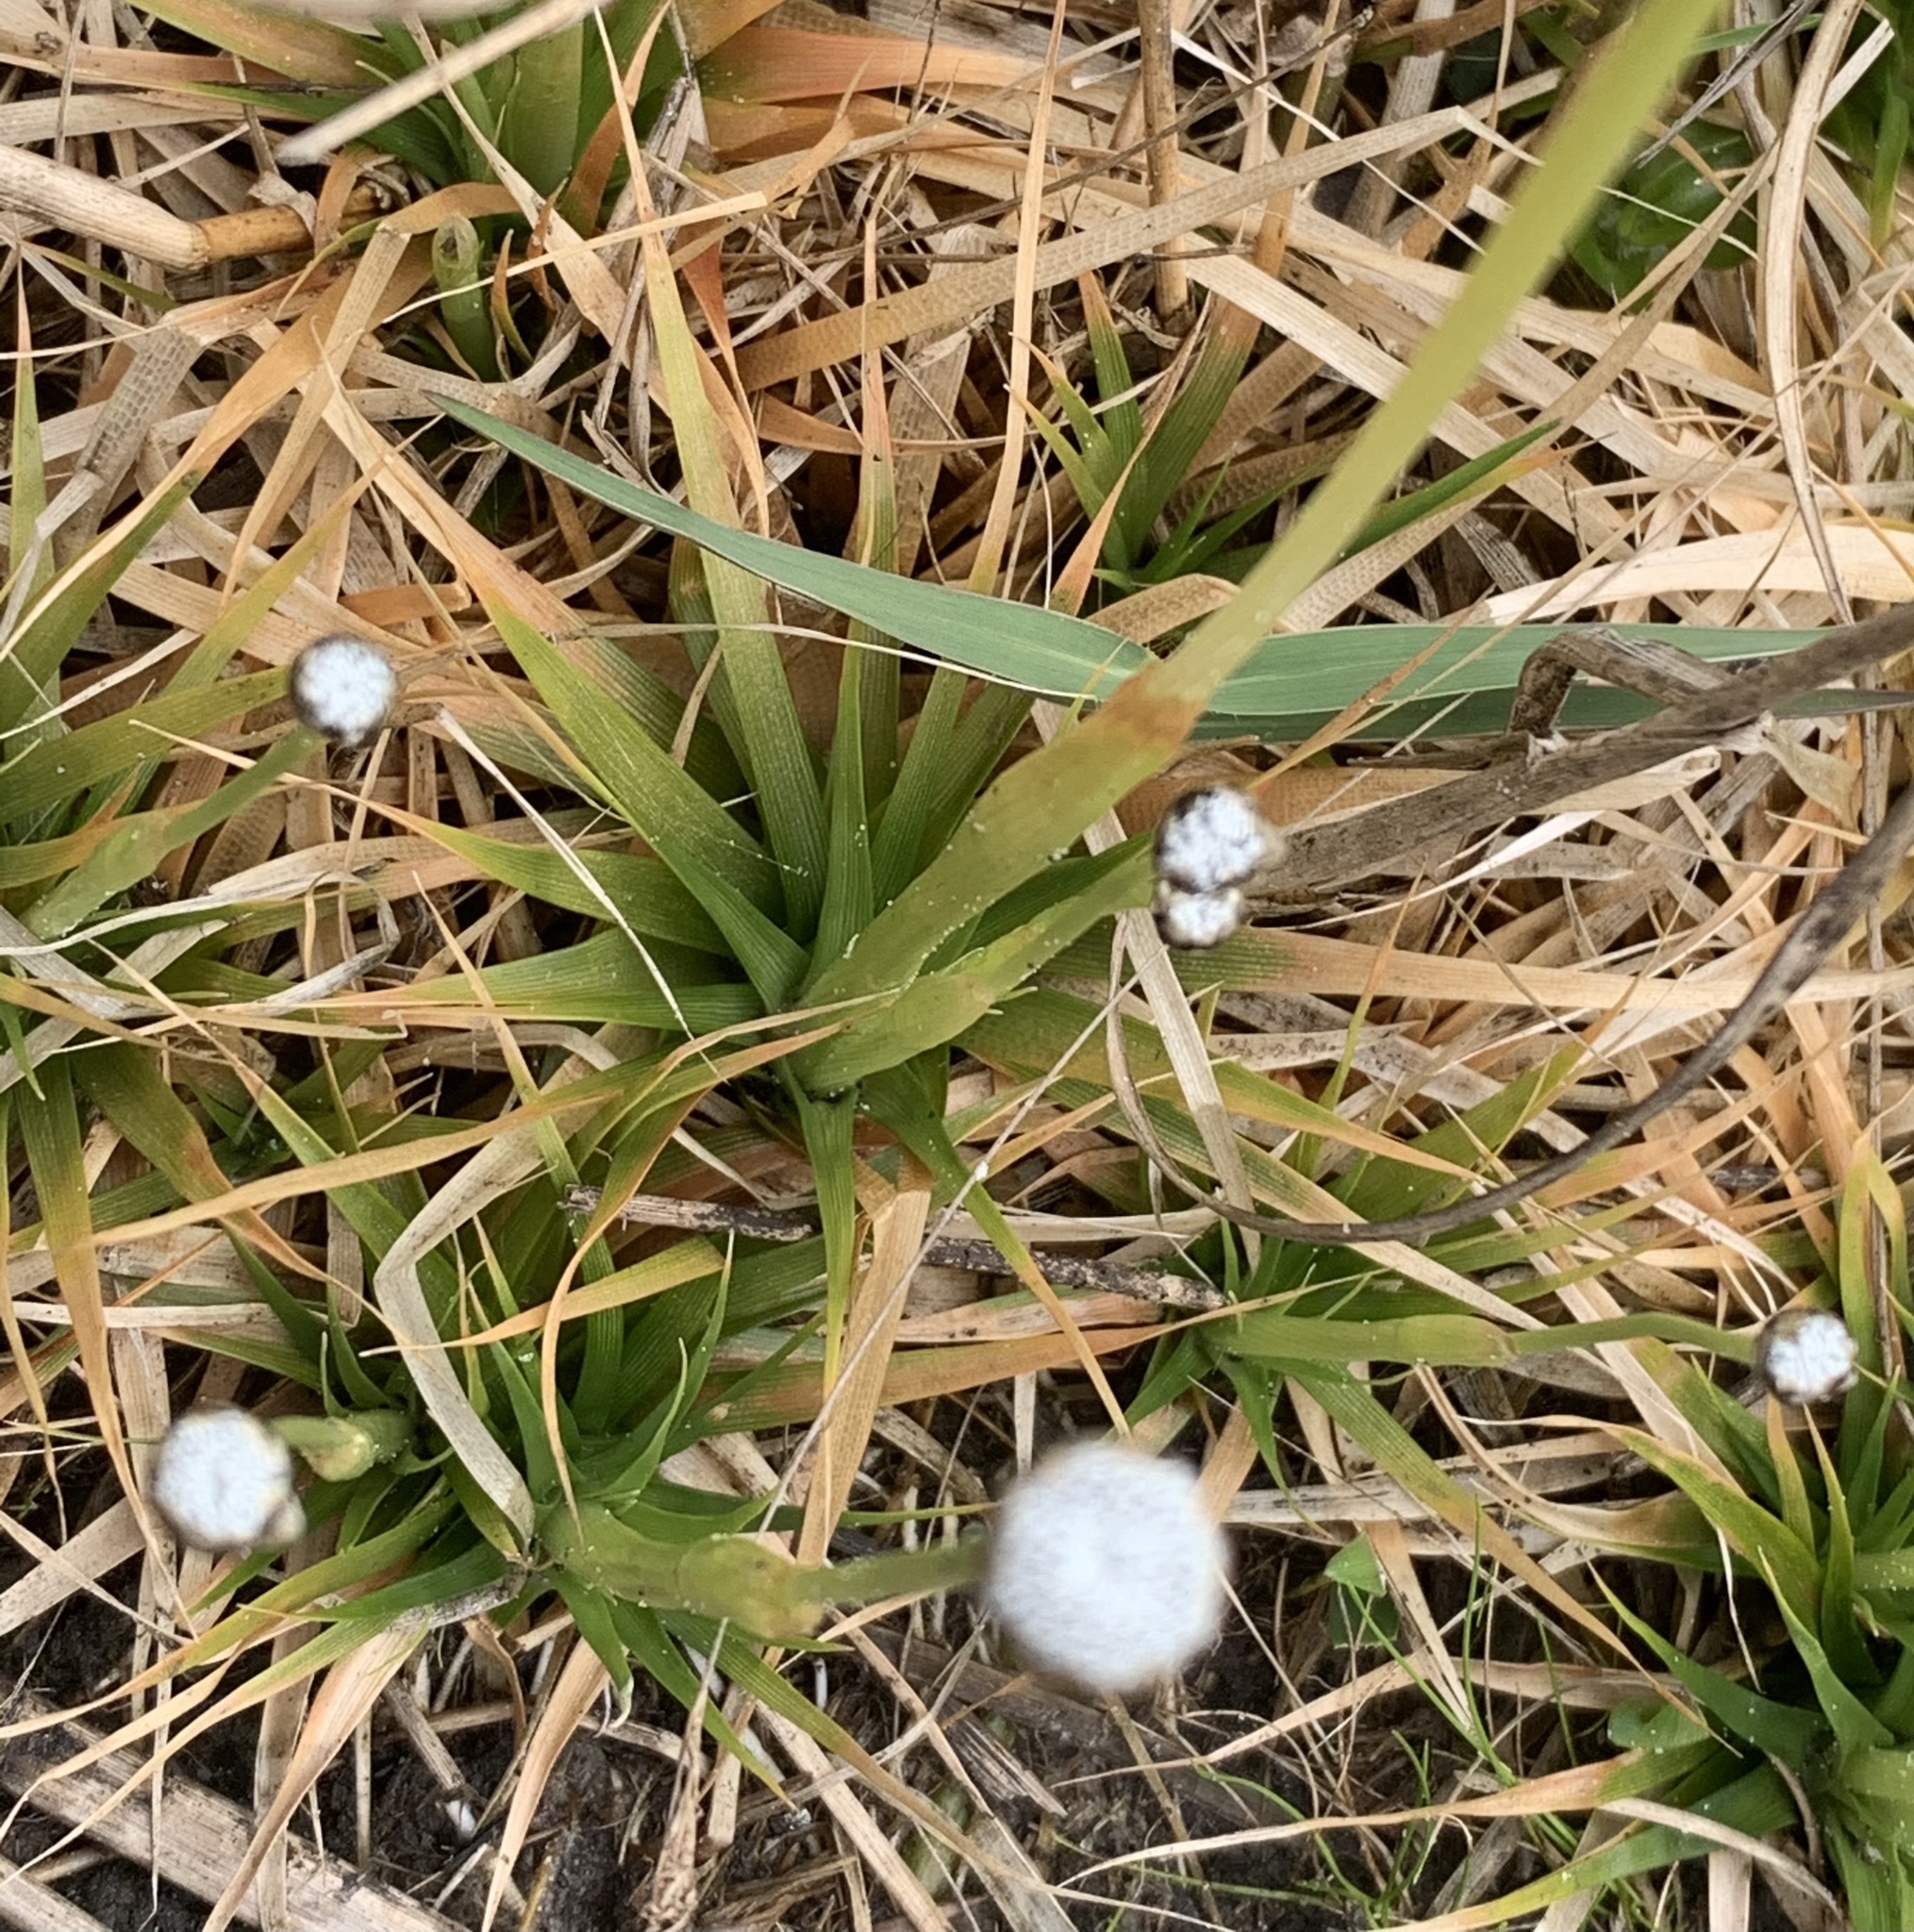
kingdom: Plantae
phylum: Tracheophyta
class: Liliopsida
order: Poales
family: Eriocaulaceae
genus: Eriocaulon
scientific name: Eriocaulon compressum
